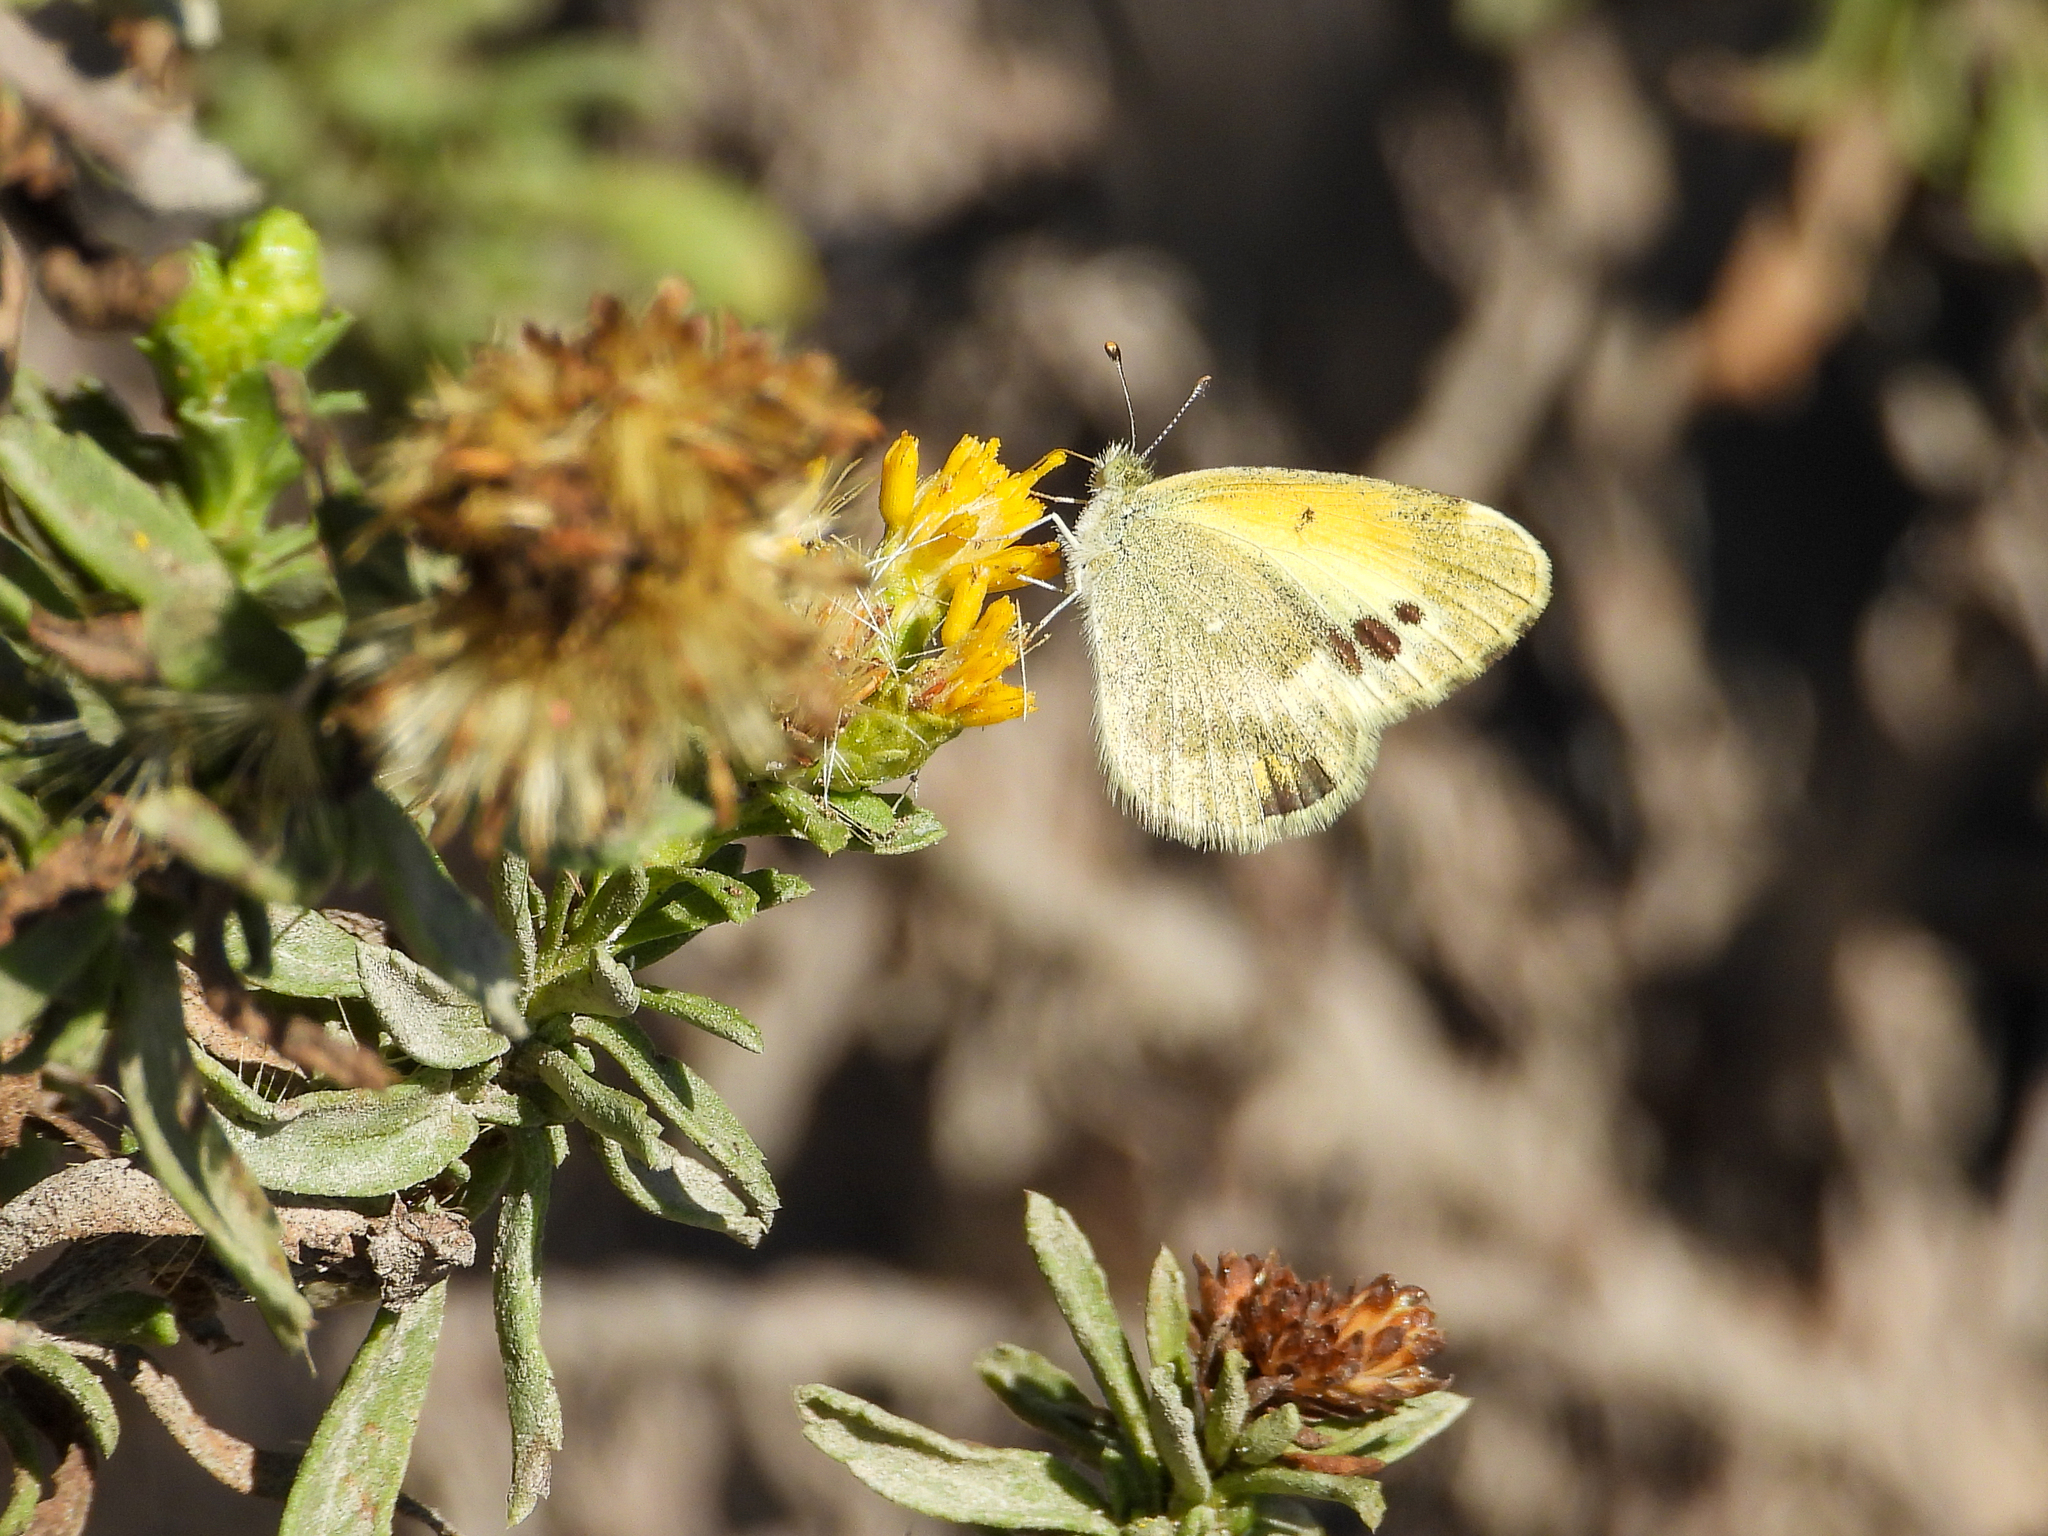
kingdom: Animalia
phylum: Arthropoda
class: Insecta
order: Lepidoptera
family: Pieridae
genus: Nathalis
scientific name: Nathalis iole
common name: Dainty sulphur
